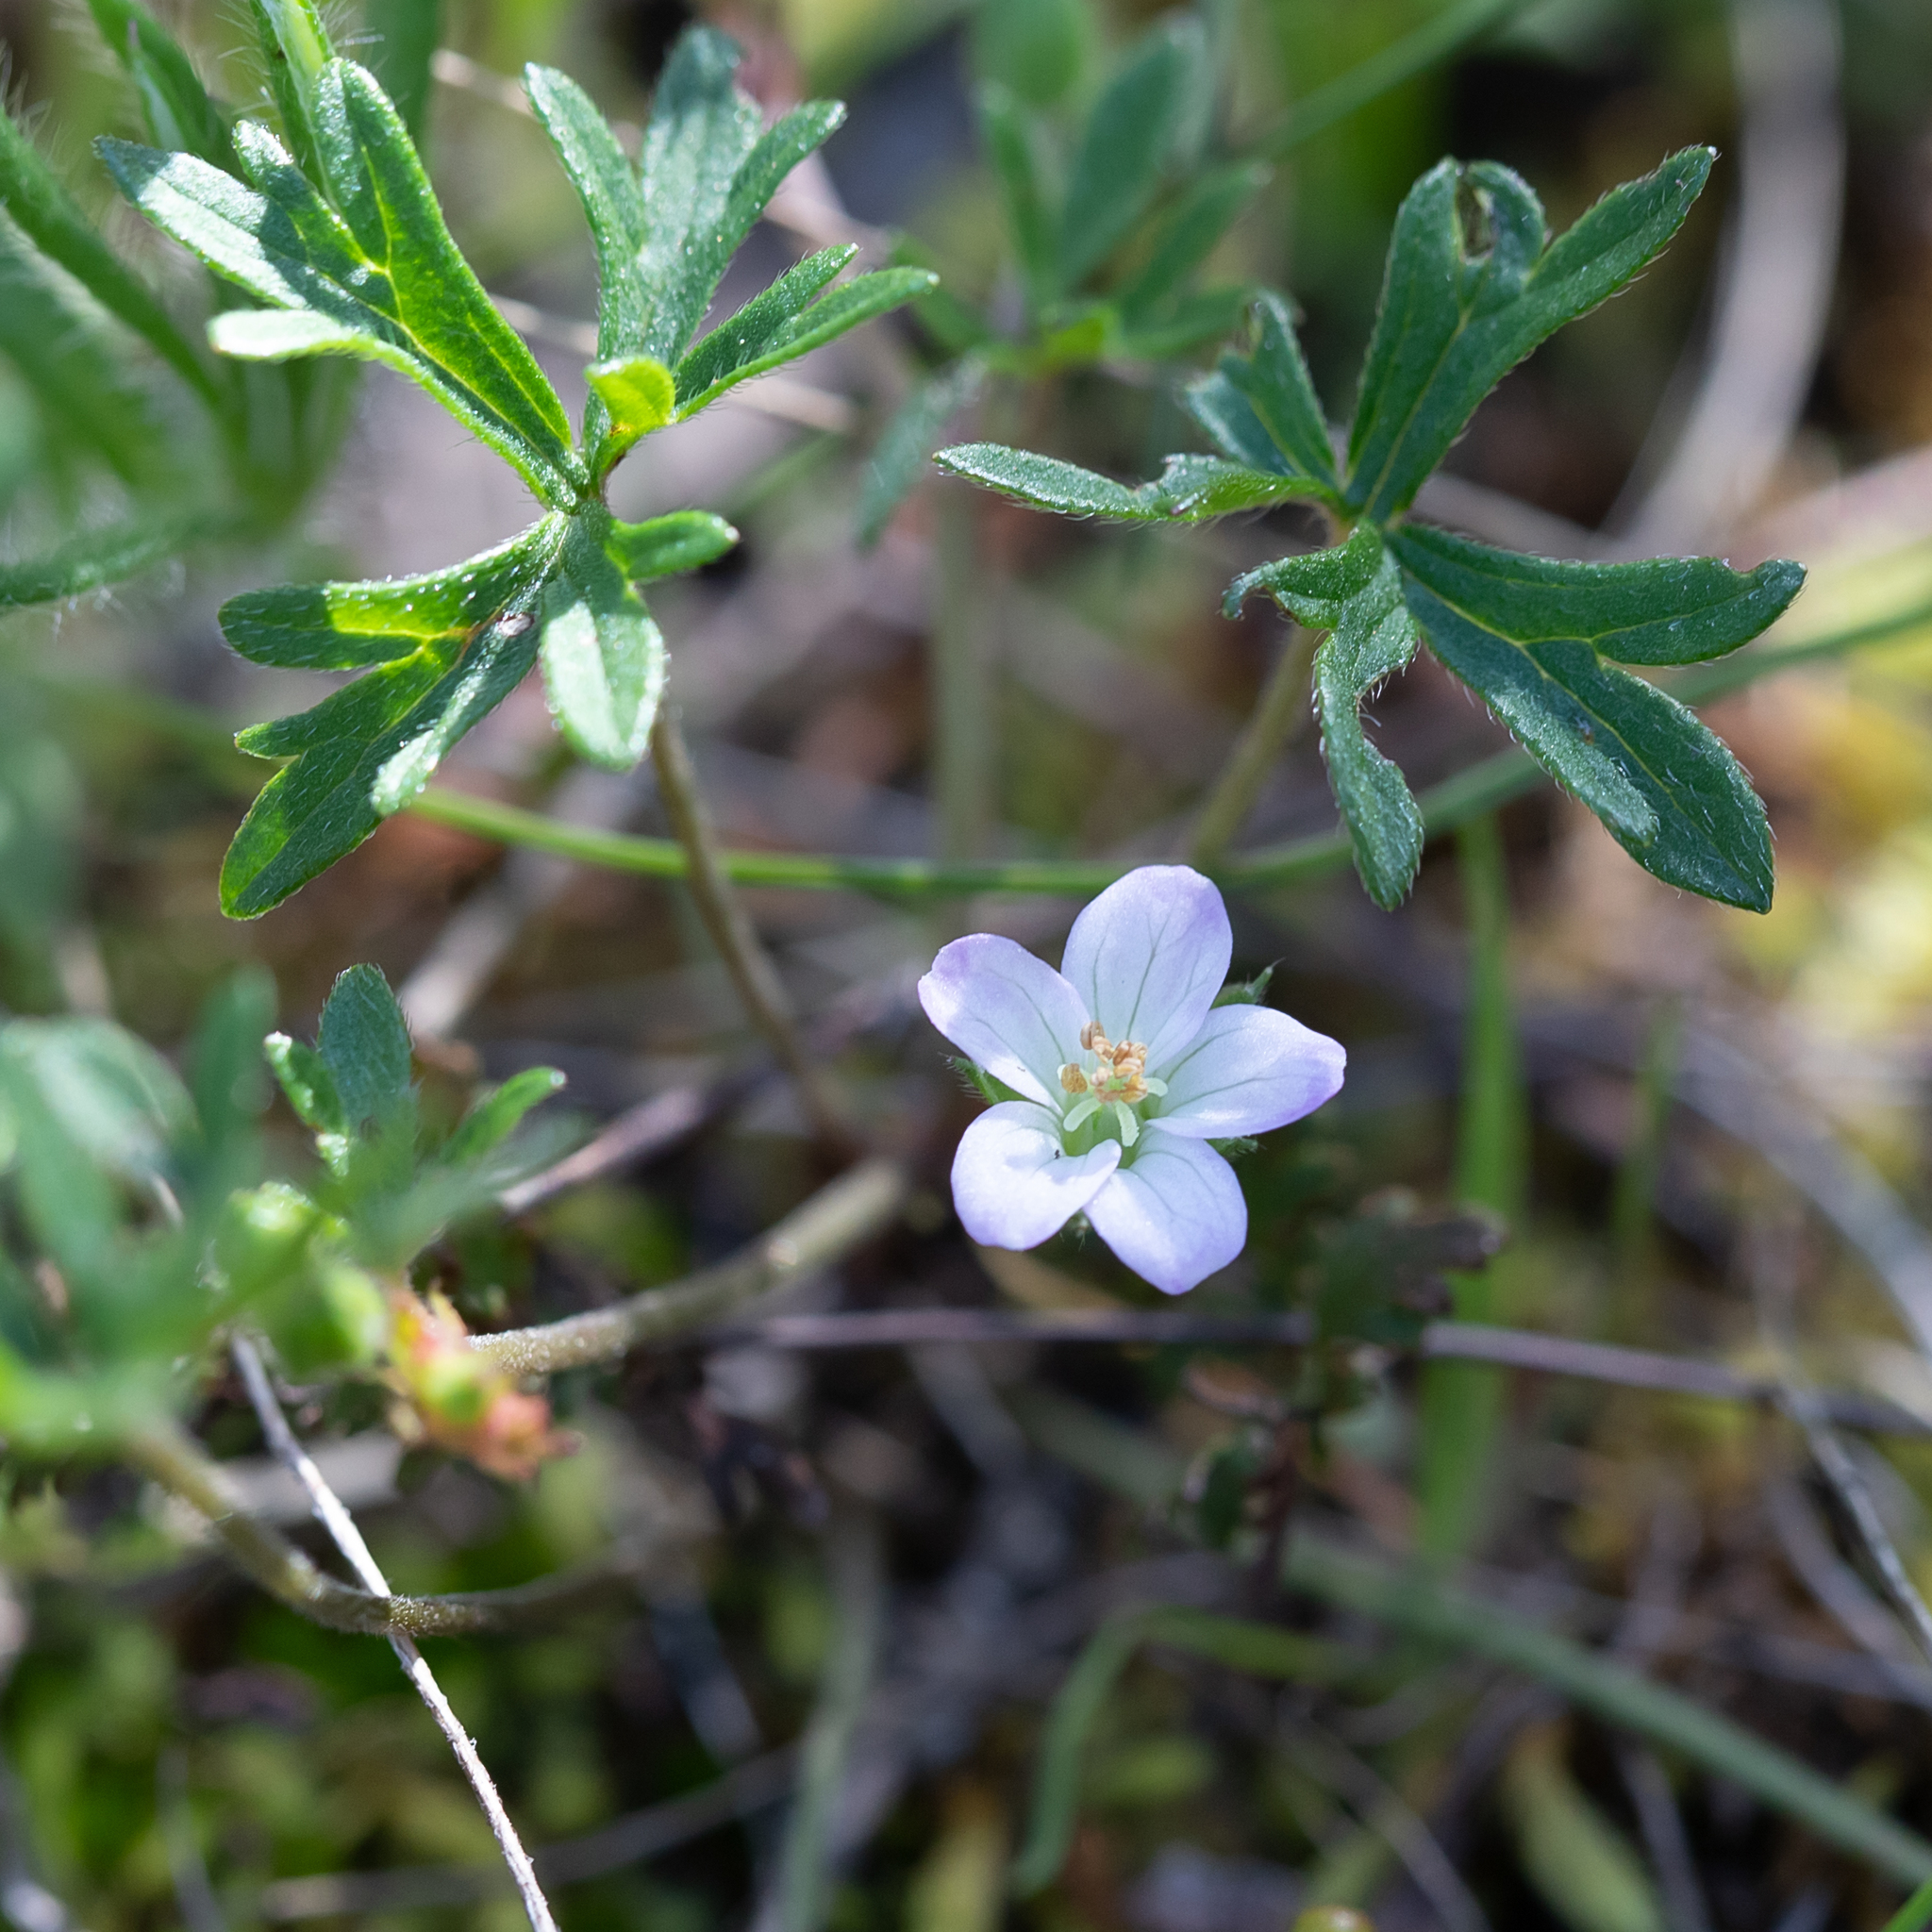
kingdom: Plantae
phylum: Tracheophyta
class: Magnoliopsida
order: Geraniales
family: Geraniaceae
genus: Geranium
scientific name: Geranium retrorsum
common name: New zealand geranium
